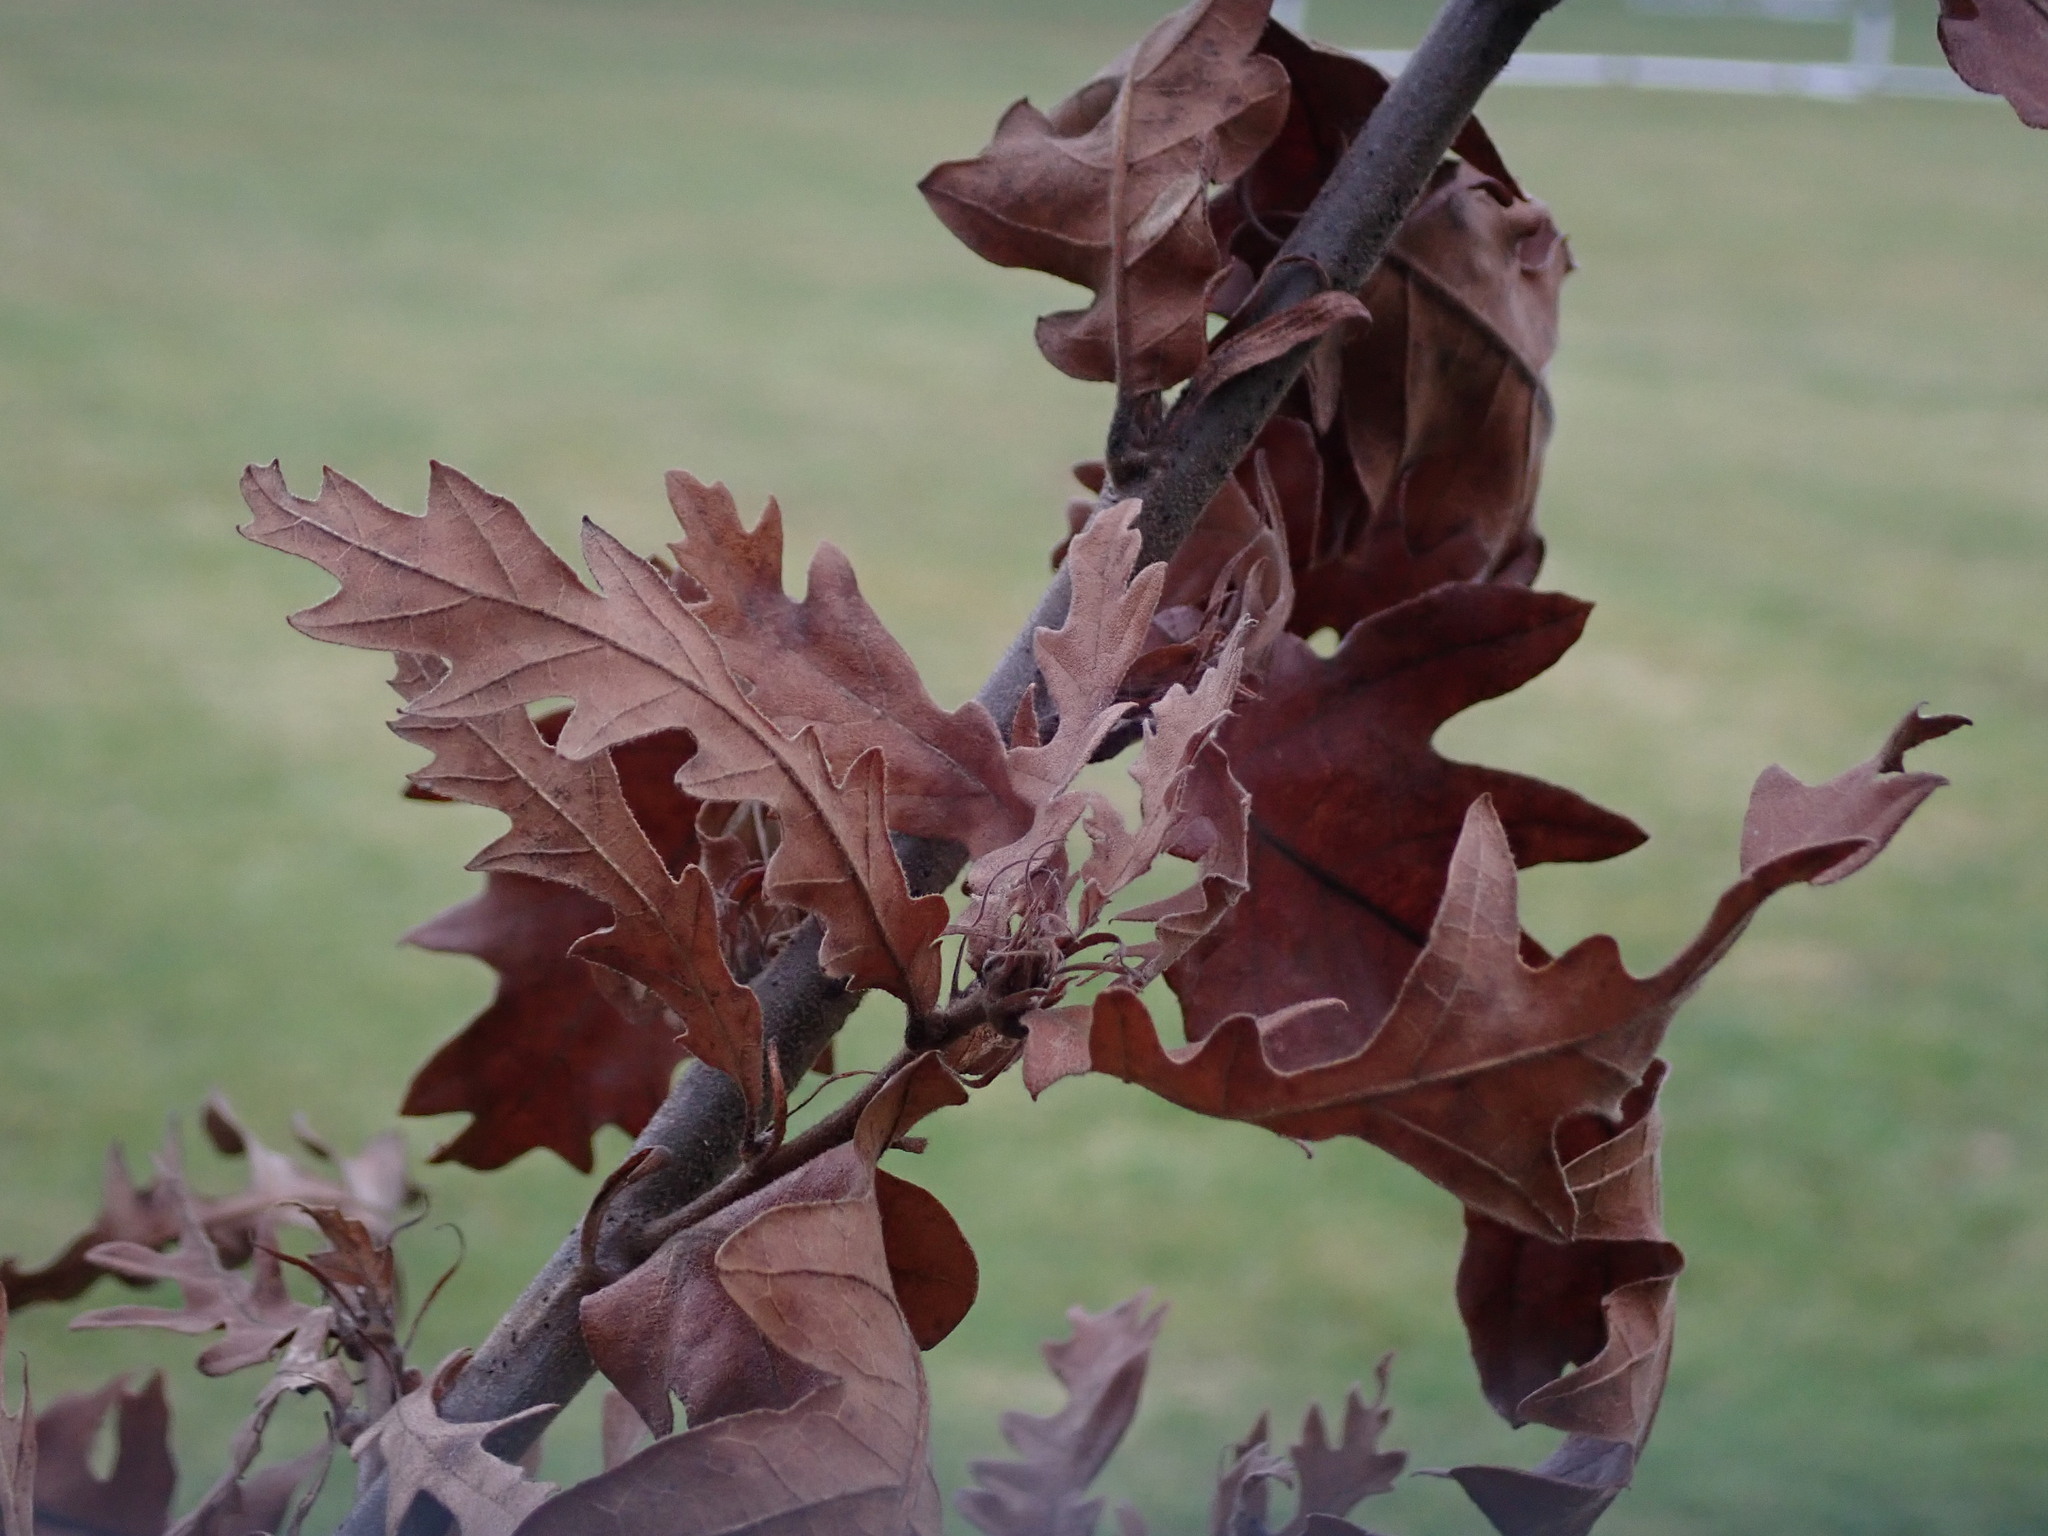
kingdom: Plantae
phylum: Tracheophyta
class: Magnoliopsida
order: Fagales
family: Fagaceae
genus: Quercus
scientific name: Quercus cerris
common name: Turkey oak
